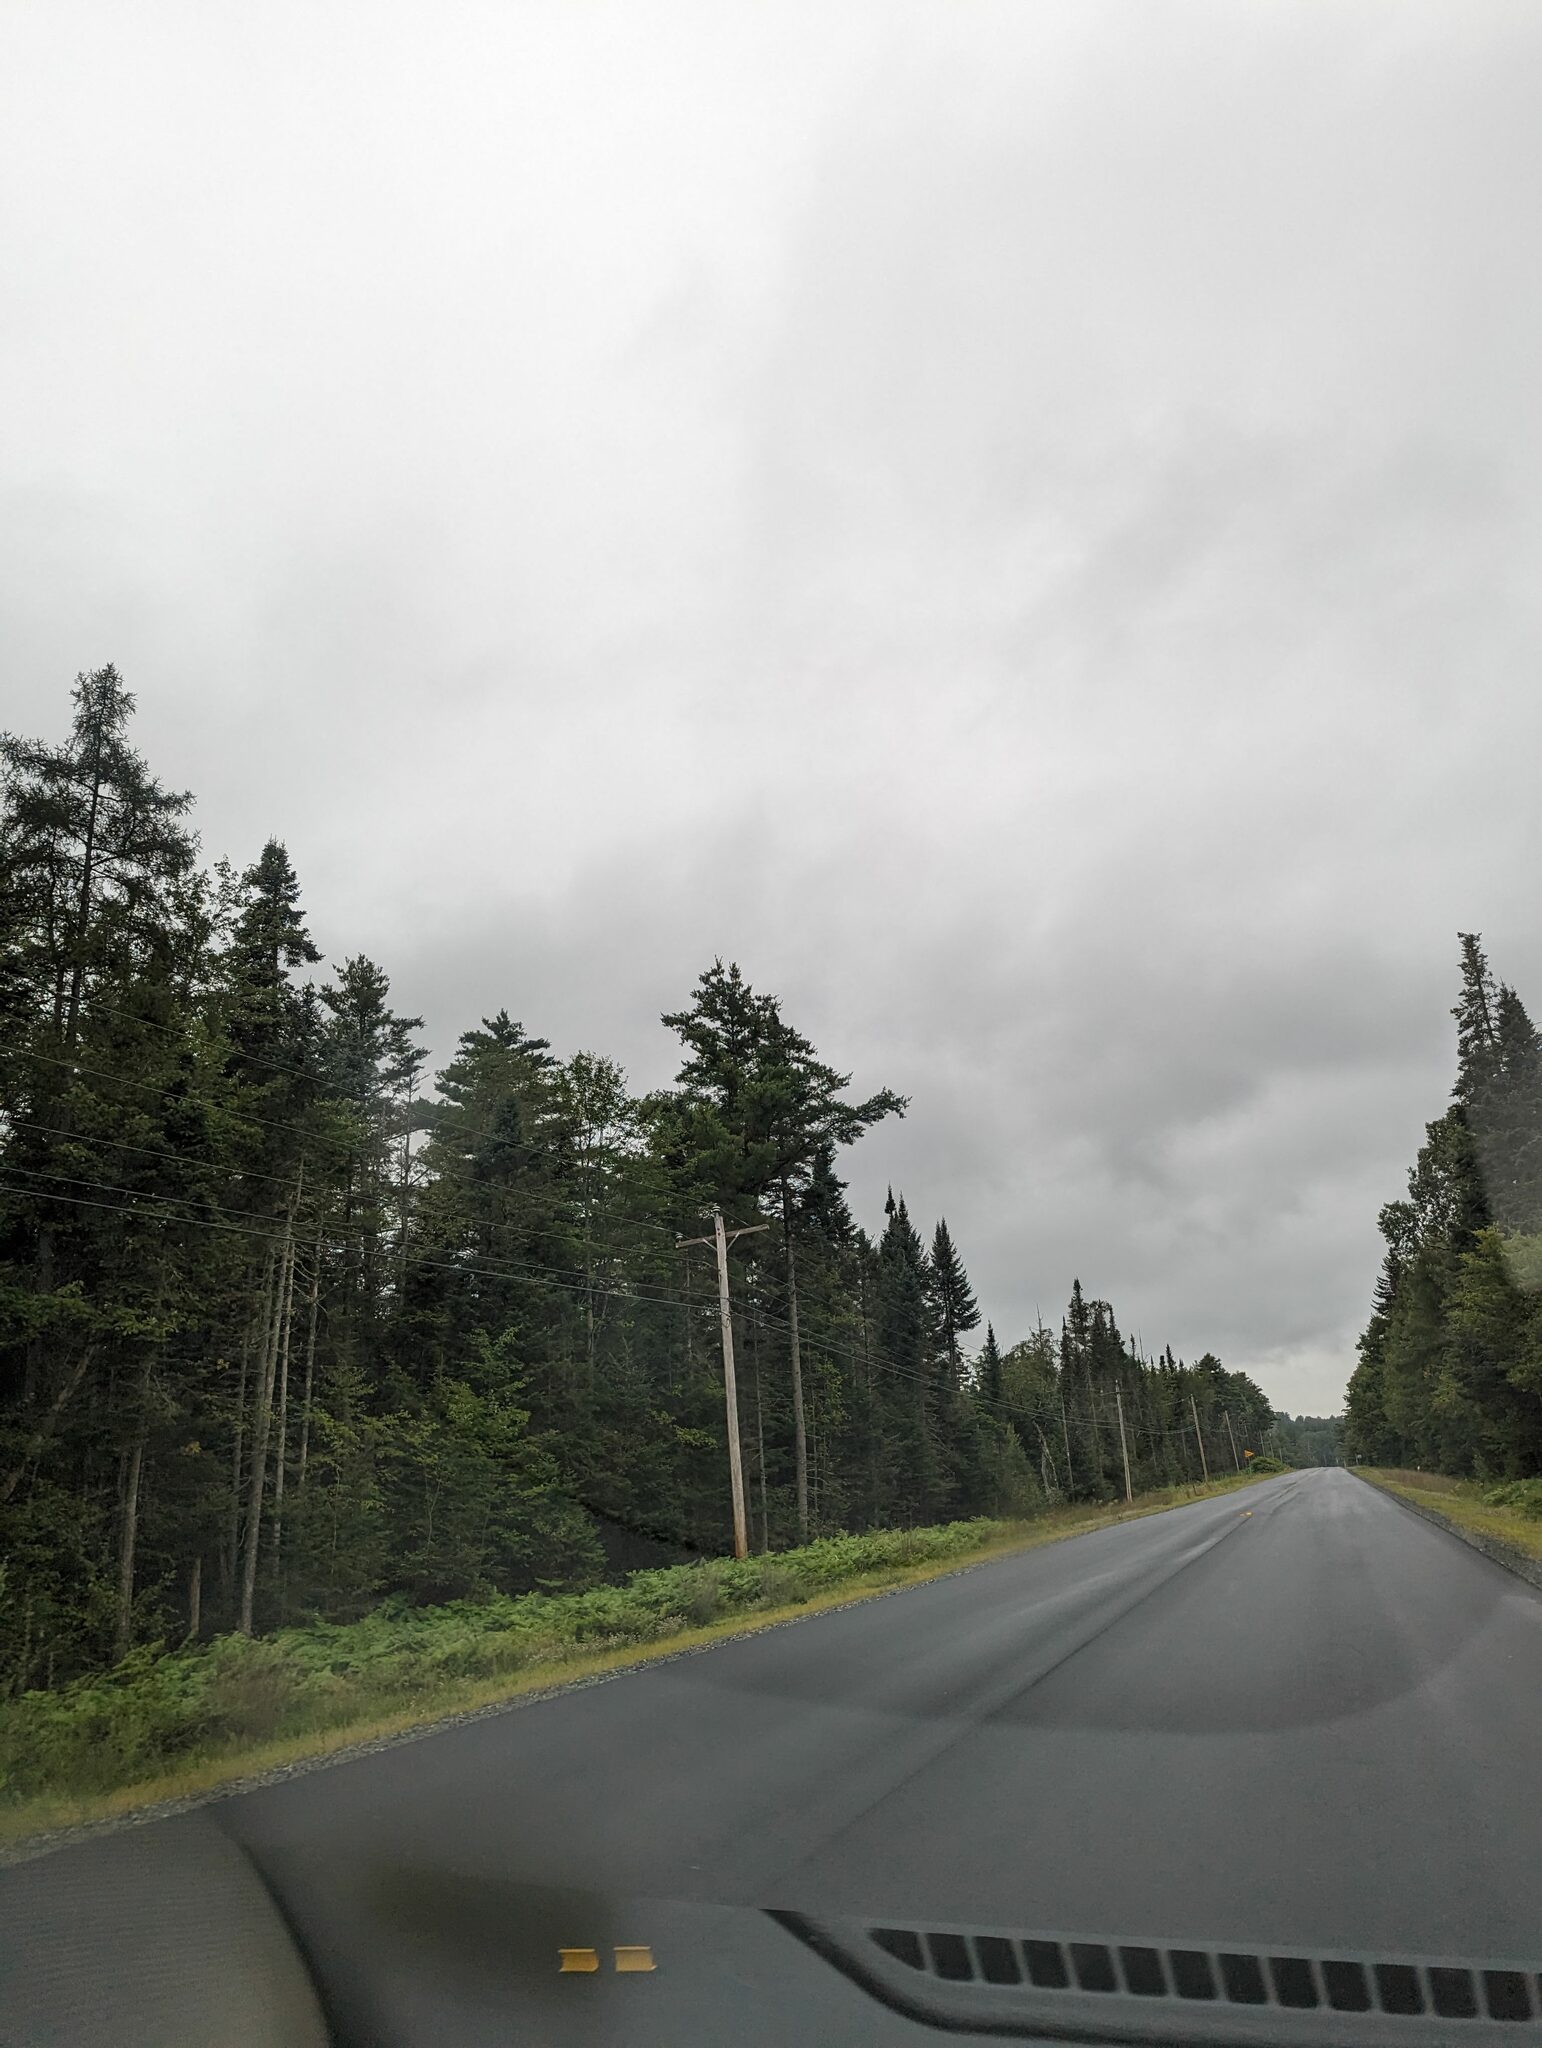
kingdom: Plantae
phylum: Tracheophyta
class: Pinopsida
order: Pinales
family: Pinaceae
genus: Pinus
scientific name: Pinus strobus
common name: Weymouth pine
